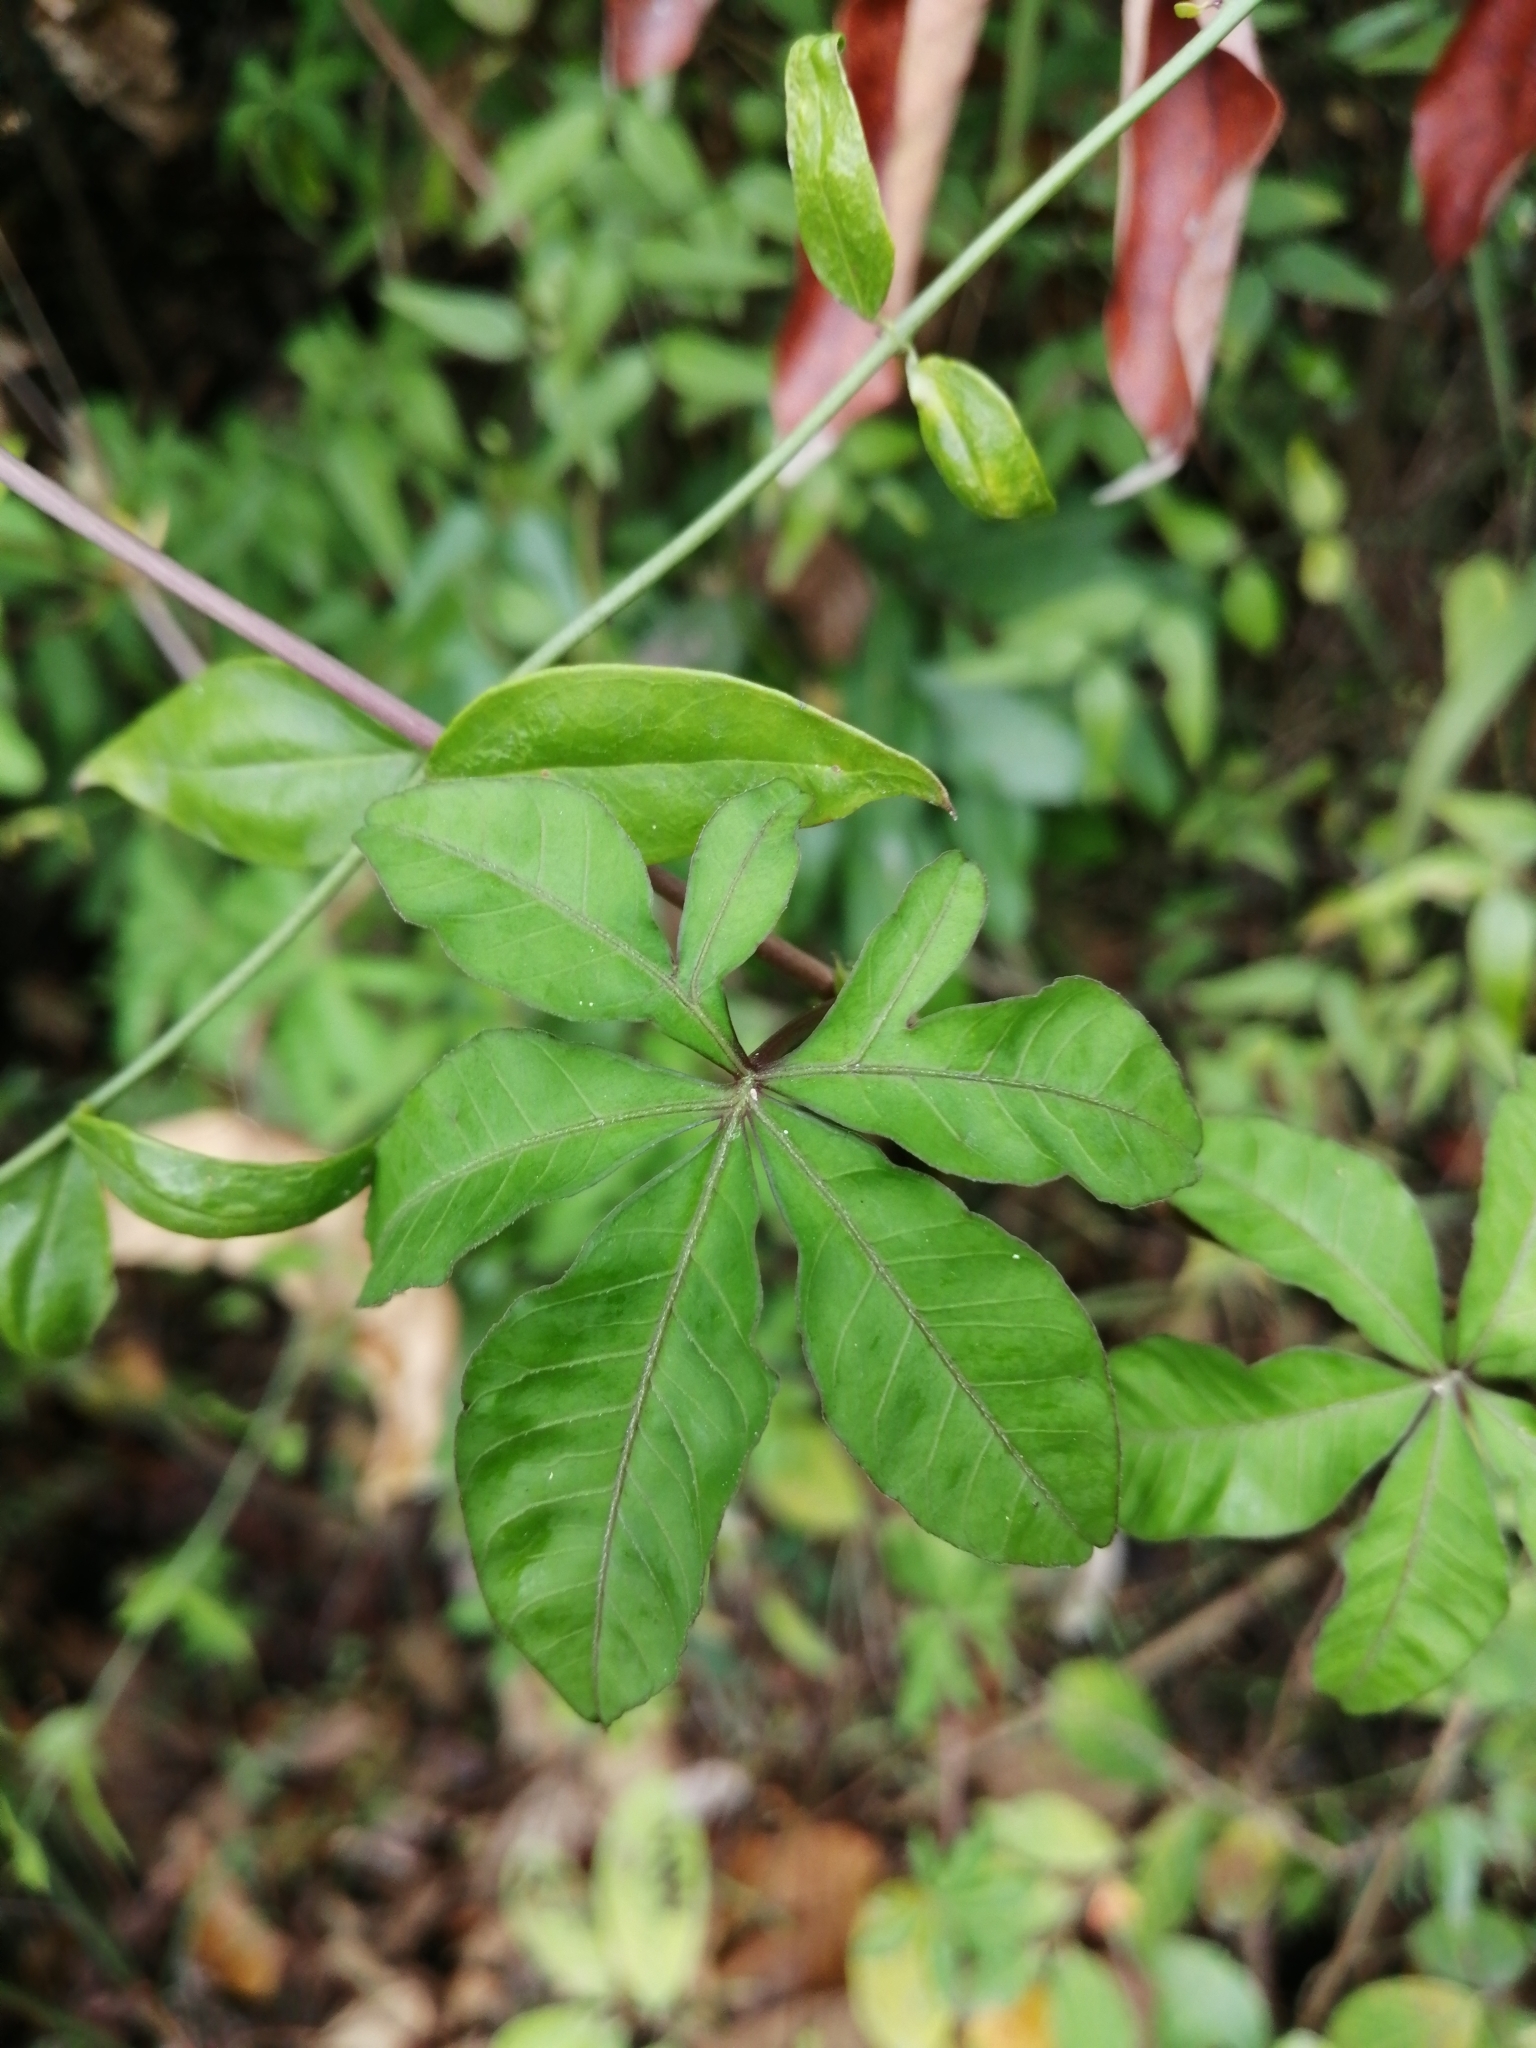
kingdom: Plantae
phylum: Tracheophyta
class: Magnoliopsida
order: Solanales
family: Convolvulaceae
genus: Ipomoea
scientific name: Ipomoea cairica
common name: Mile a minute vine
